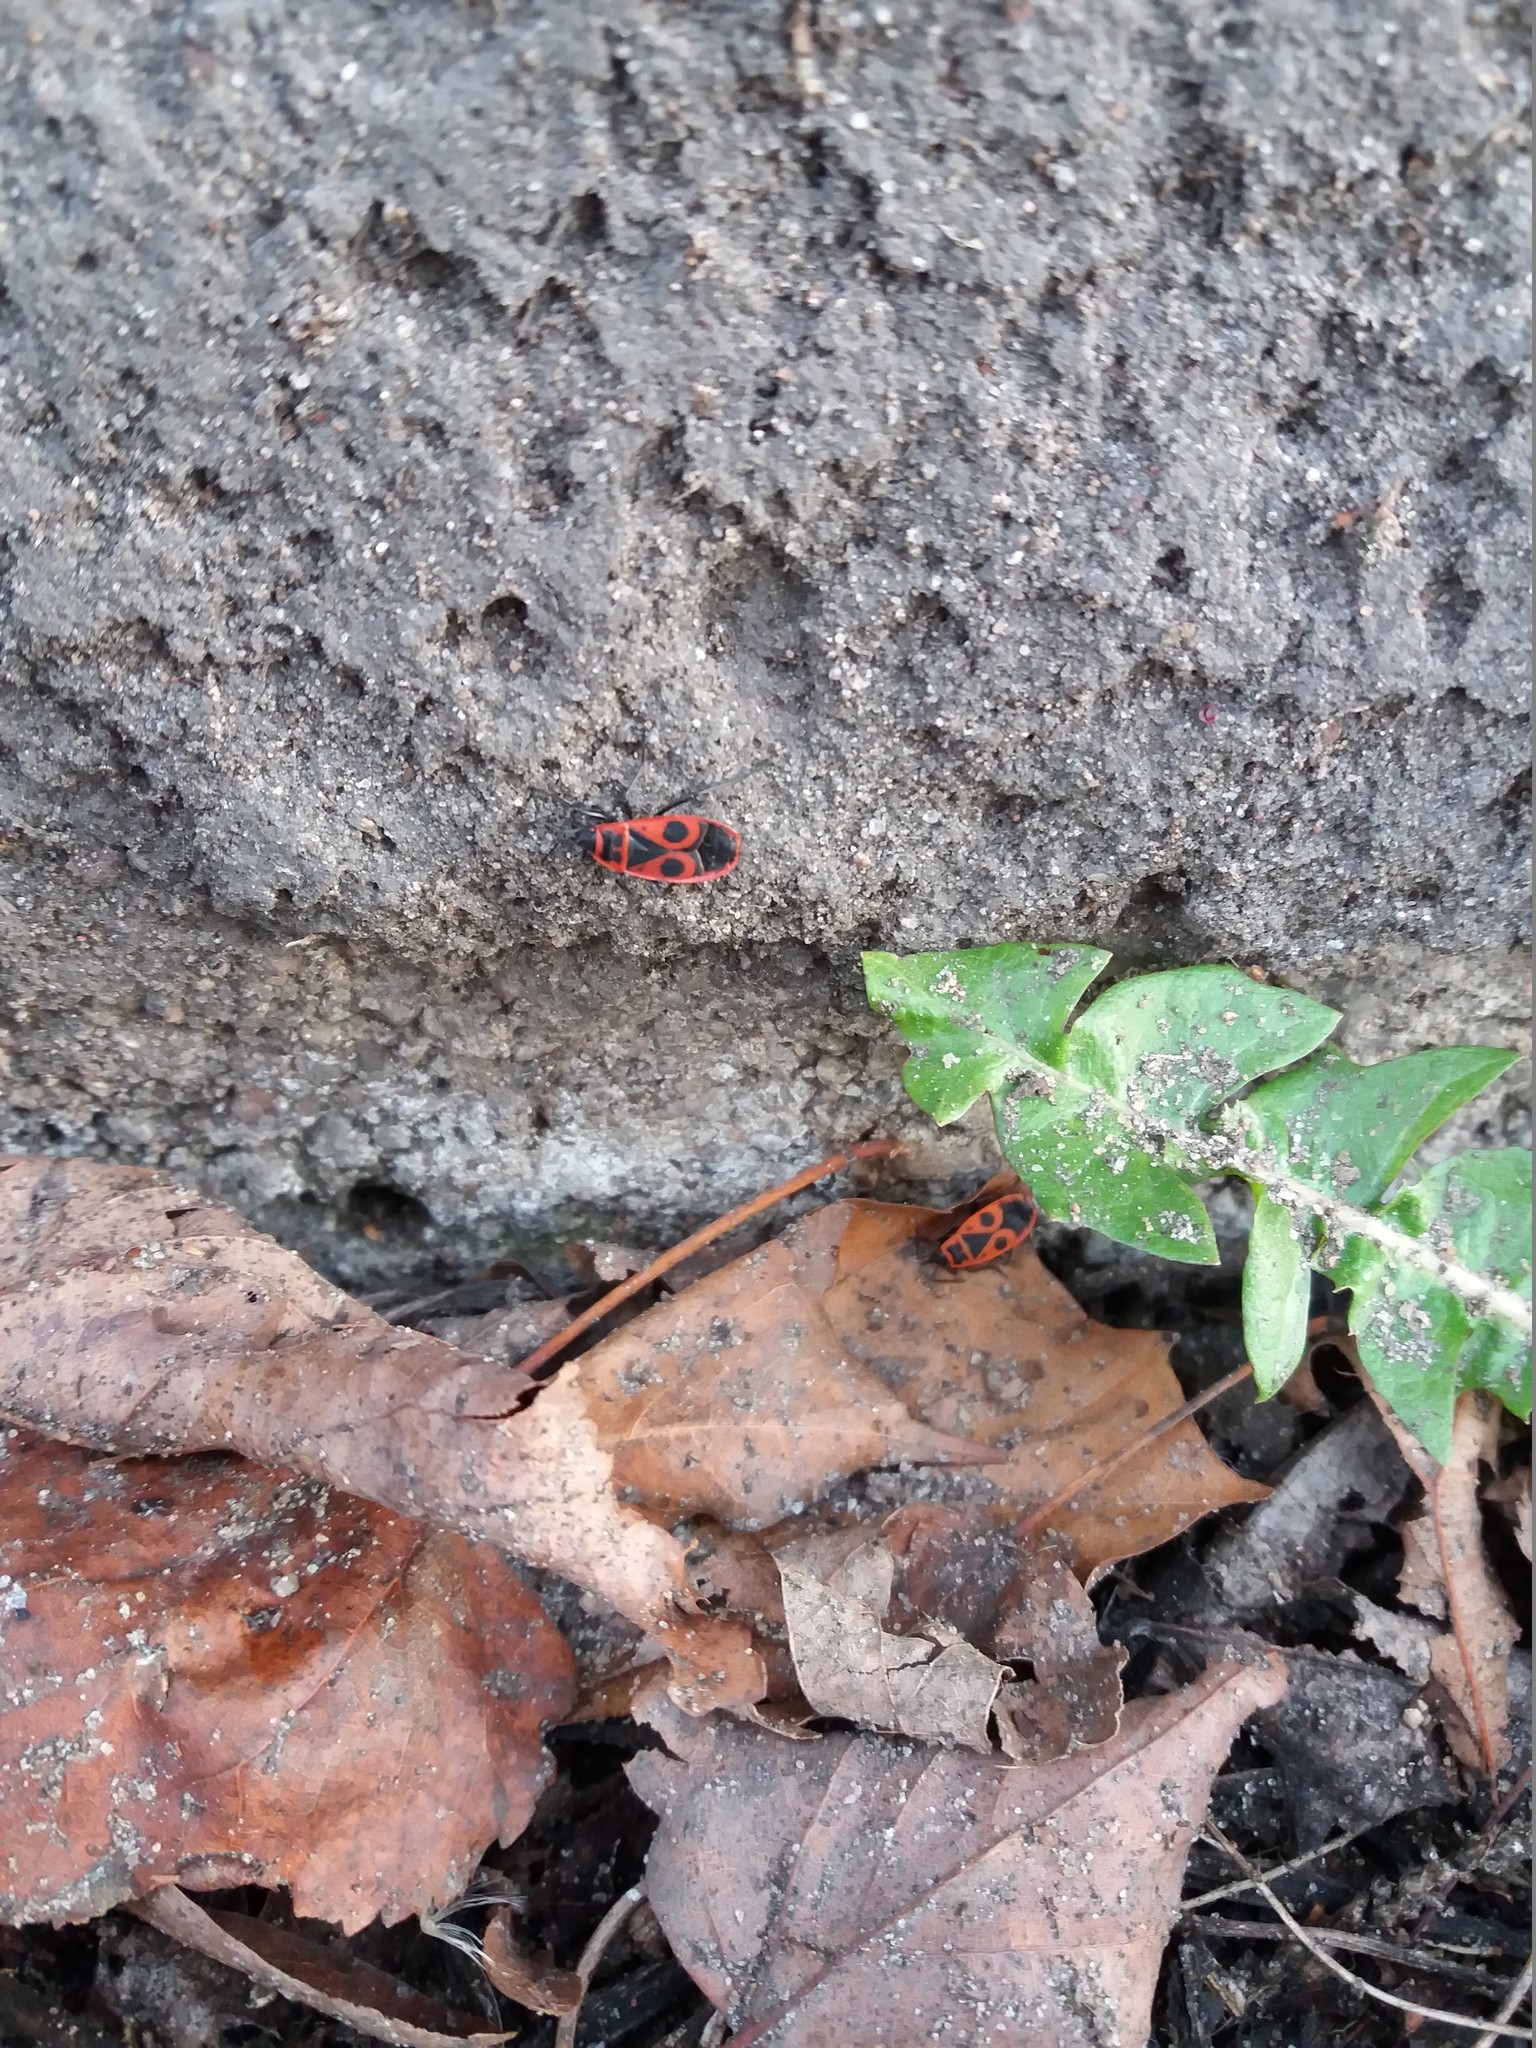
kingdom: Animalia
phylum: Arthropoda
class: Insecta
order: Hemiptera
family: Pyrrhocoridae
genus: Pyrrhocoris
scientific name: Pyrrhocoris apterus
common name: Firebug
